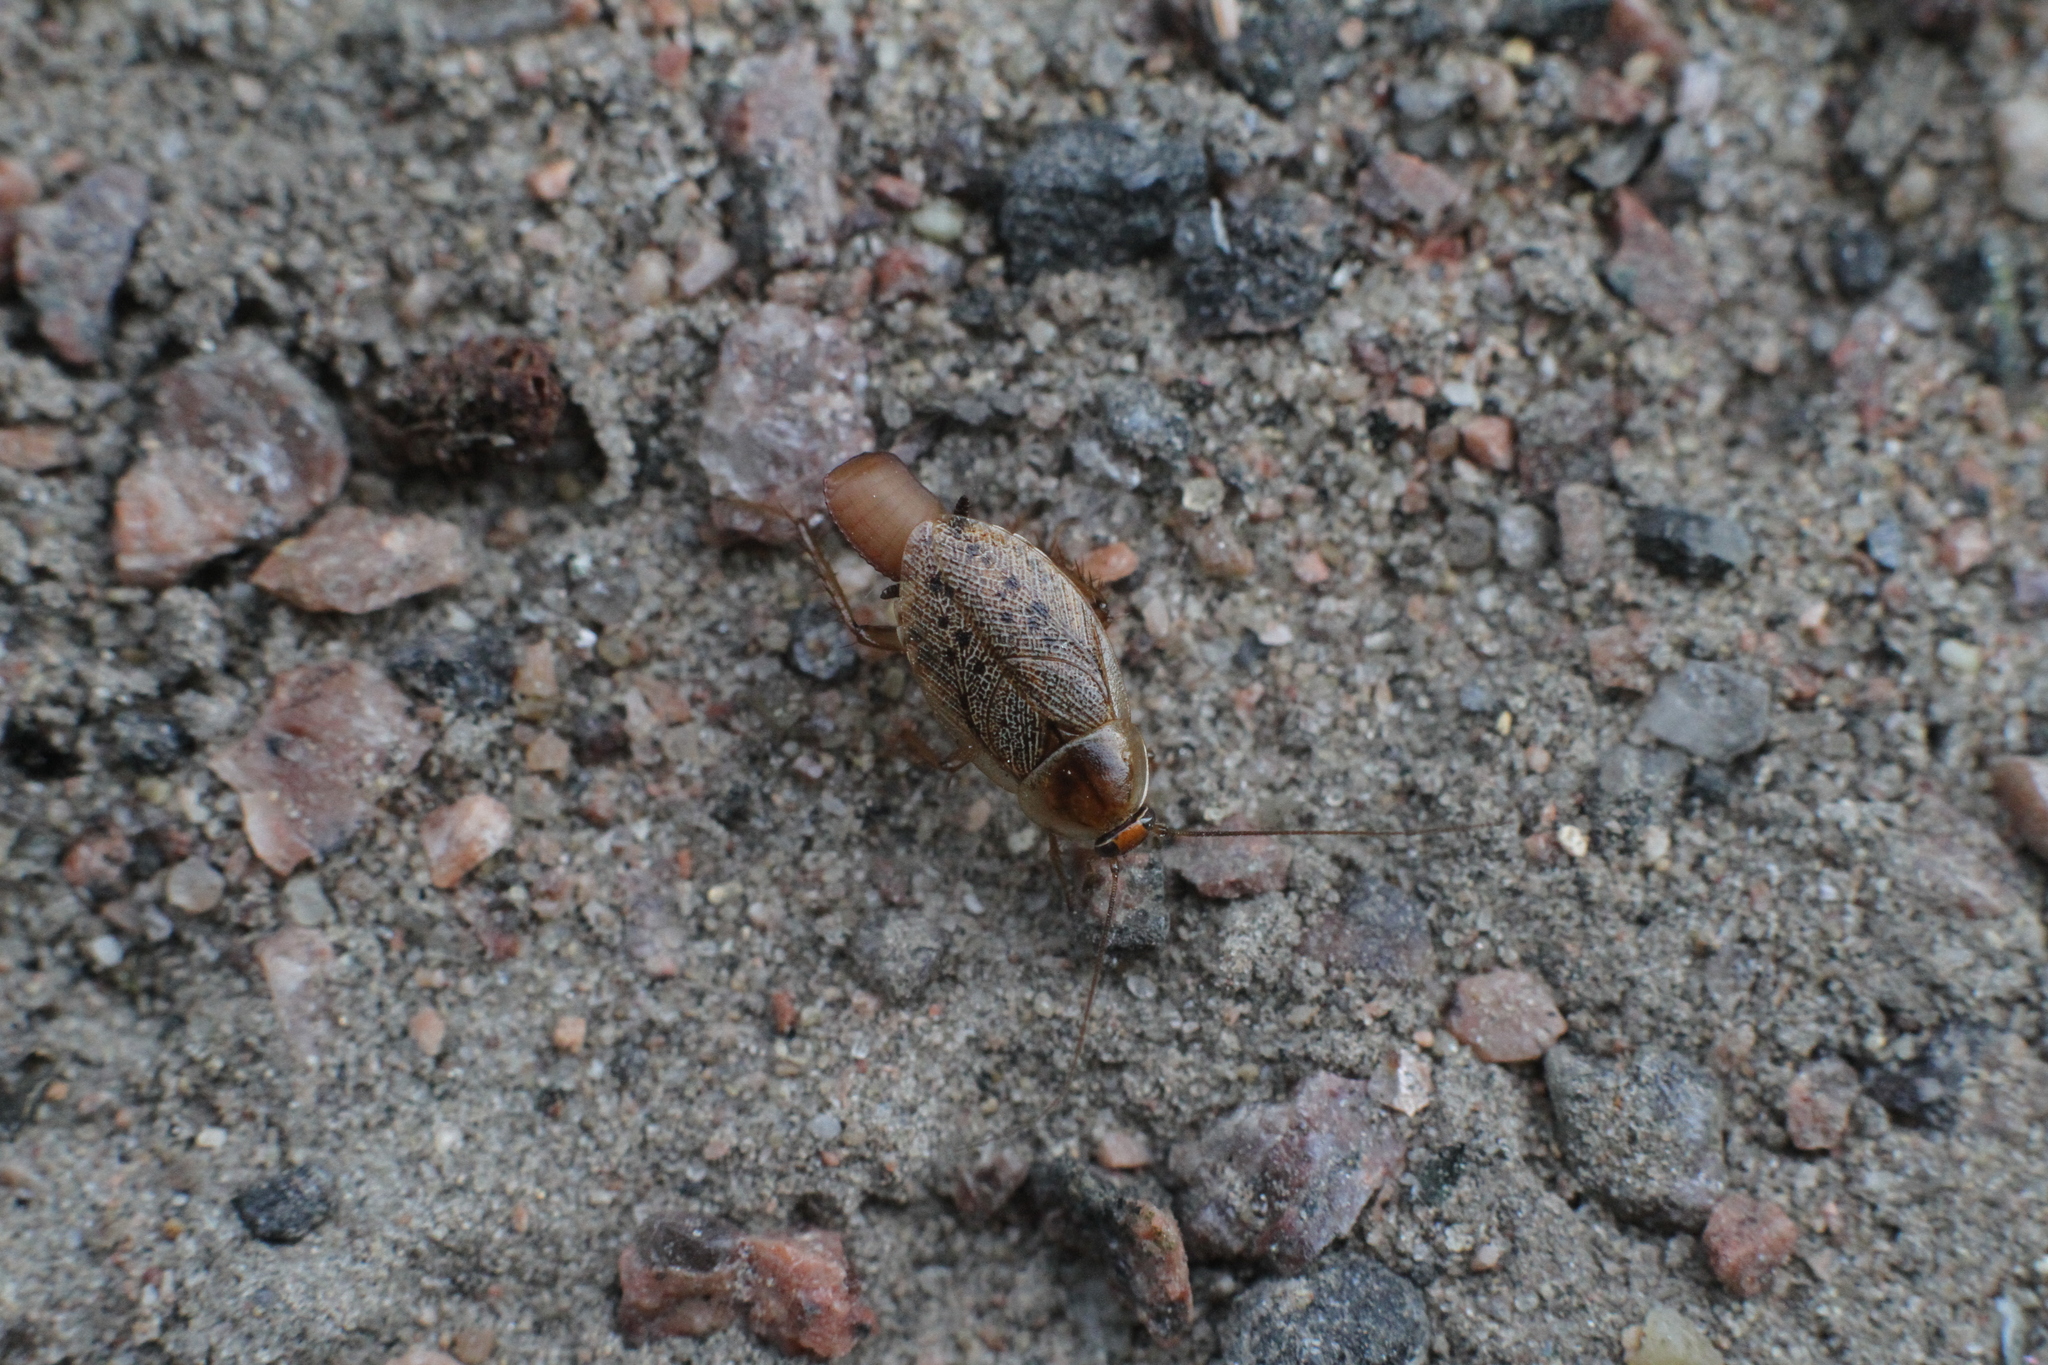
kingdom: Animalia
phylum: Arthropoda
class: Insecta
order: Blattodea
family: Ectobiidae
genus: Ectobius
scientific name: Ectobius lapponicus
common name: Dusky cockroach
